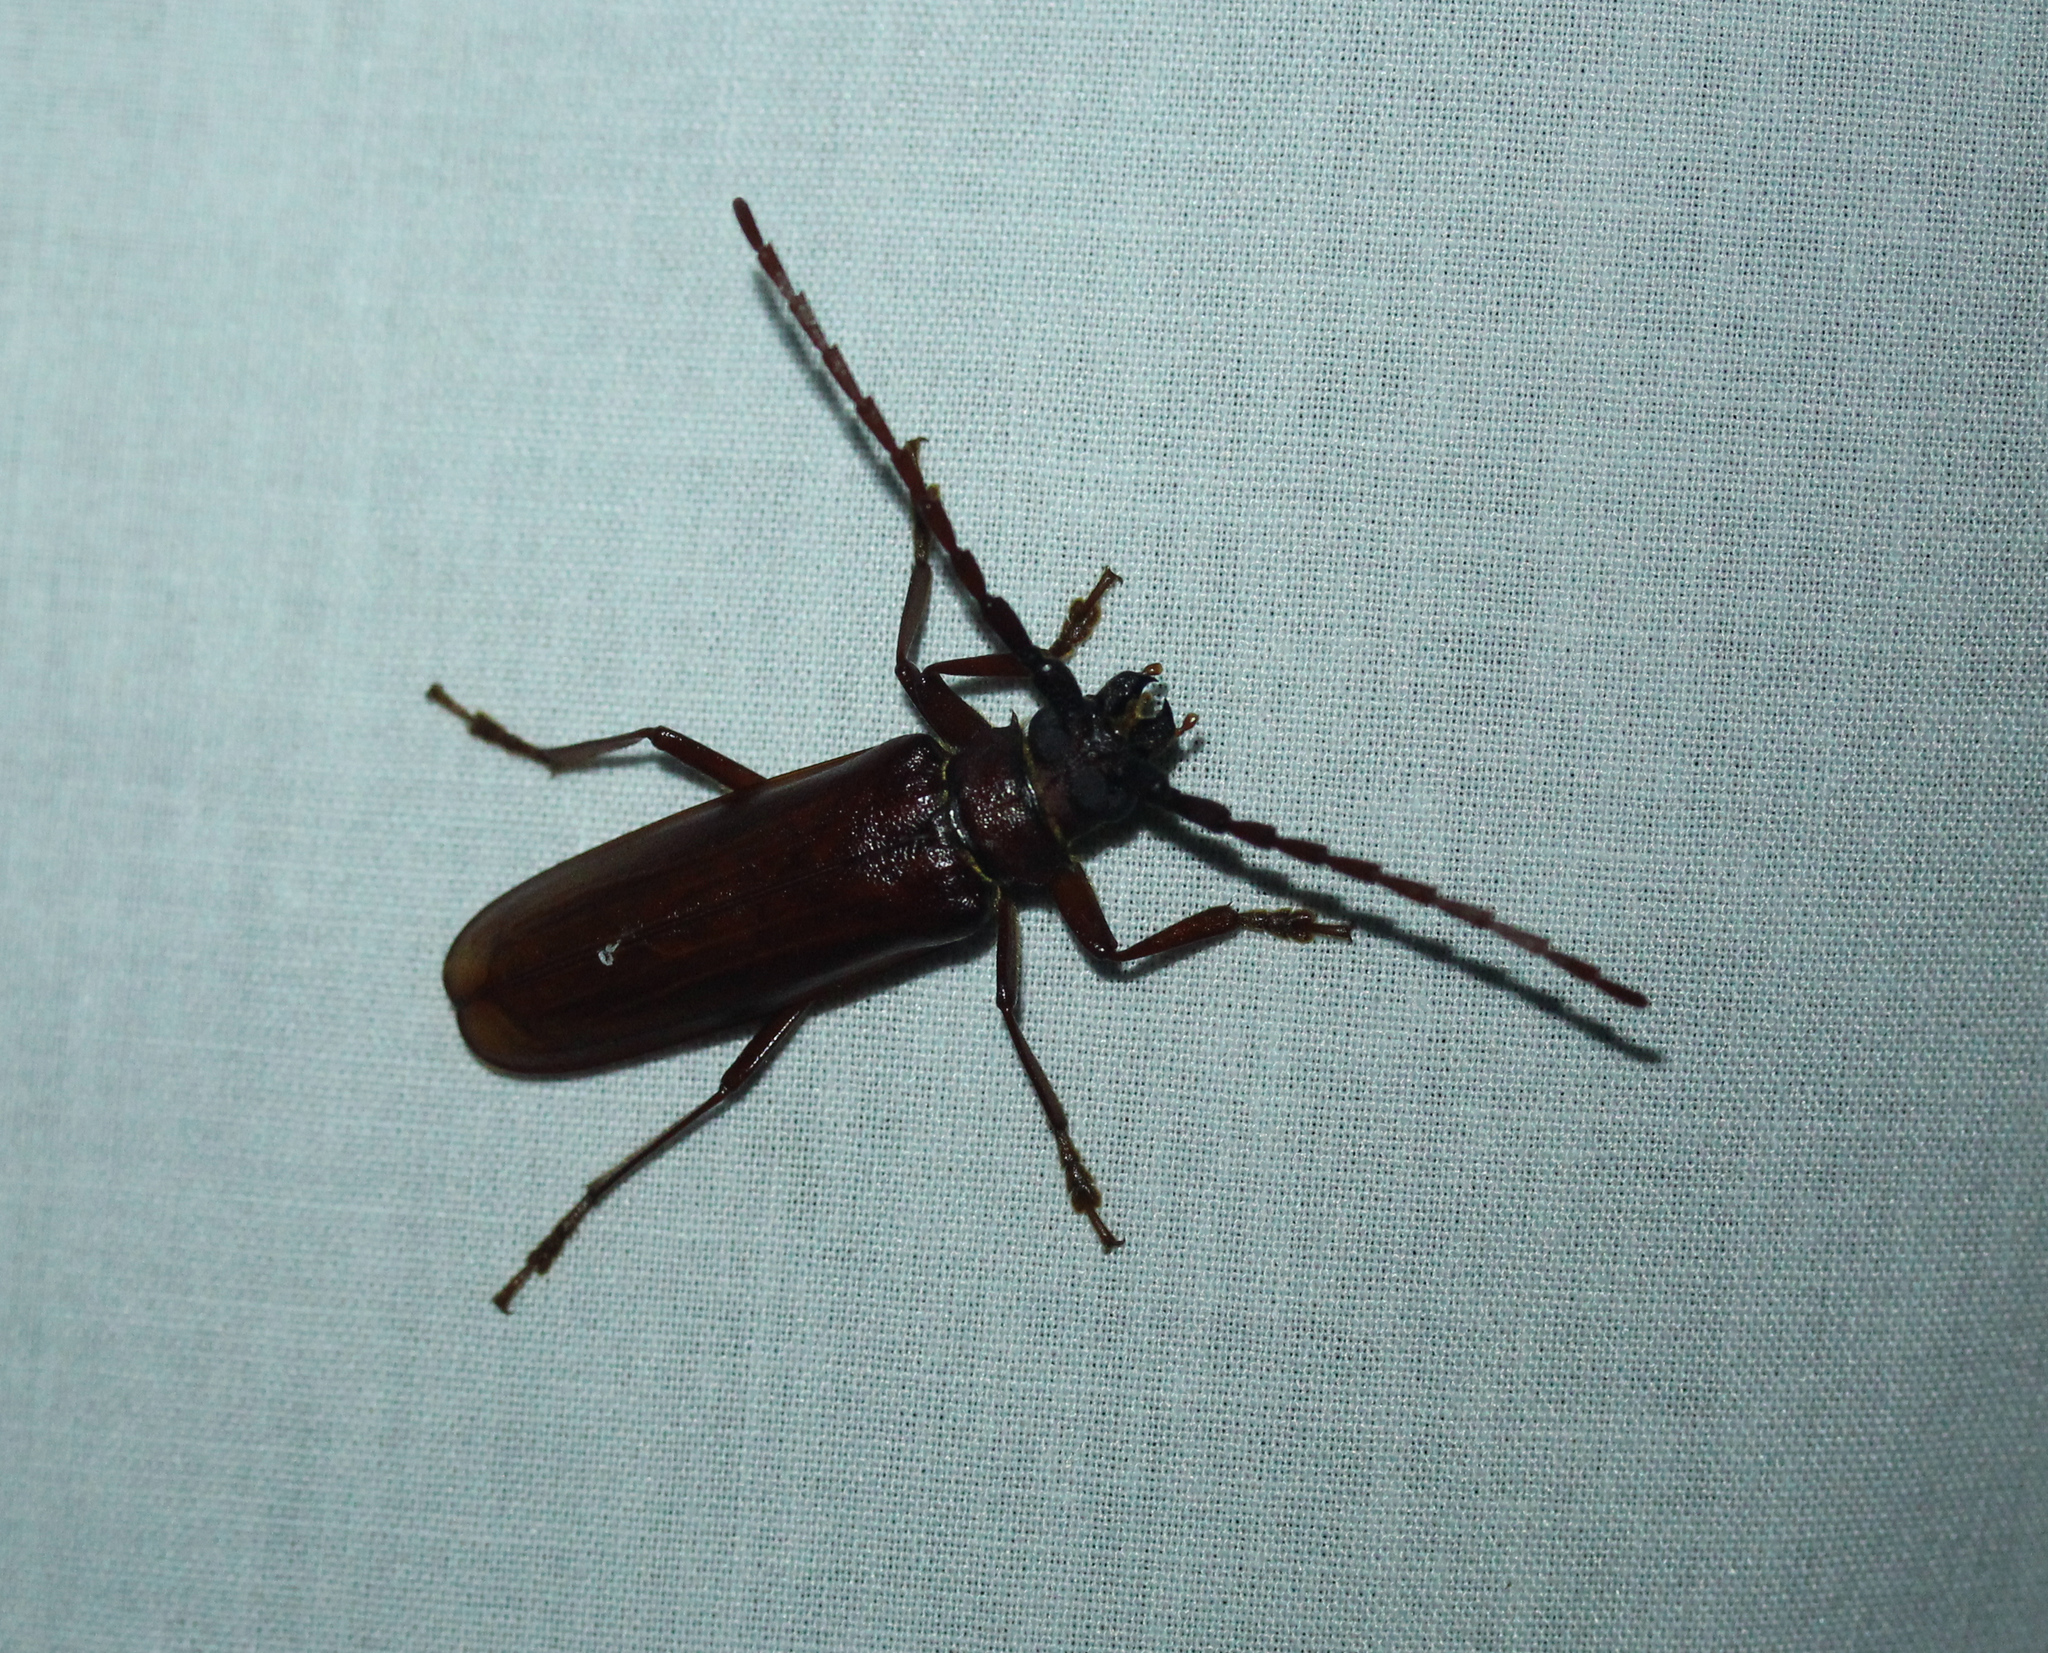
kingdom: Animalia
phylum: Arthropoda
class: Insecta
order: Coleoptera
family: Cerambycidae
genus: Orthosoma
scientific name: Orthosoma brunneum
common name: Brown prionid beetle
